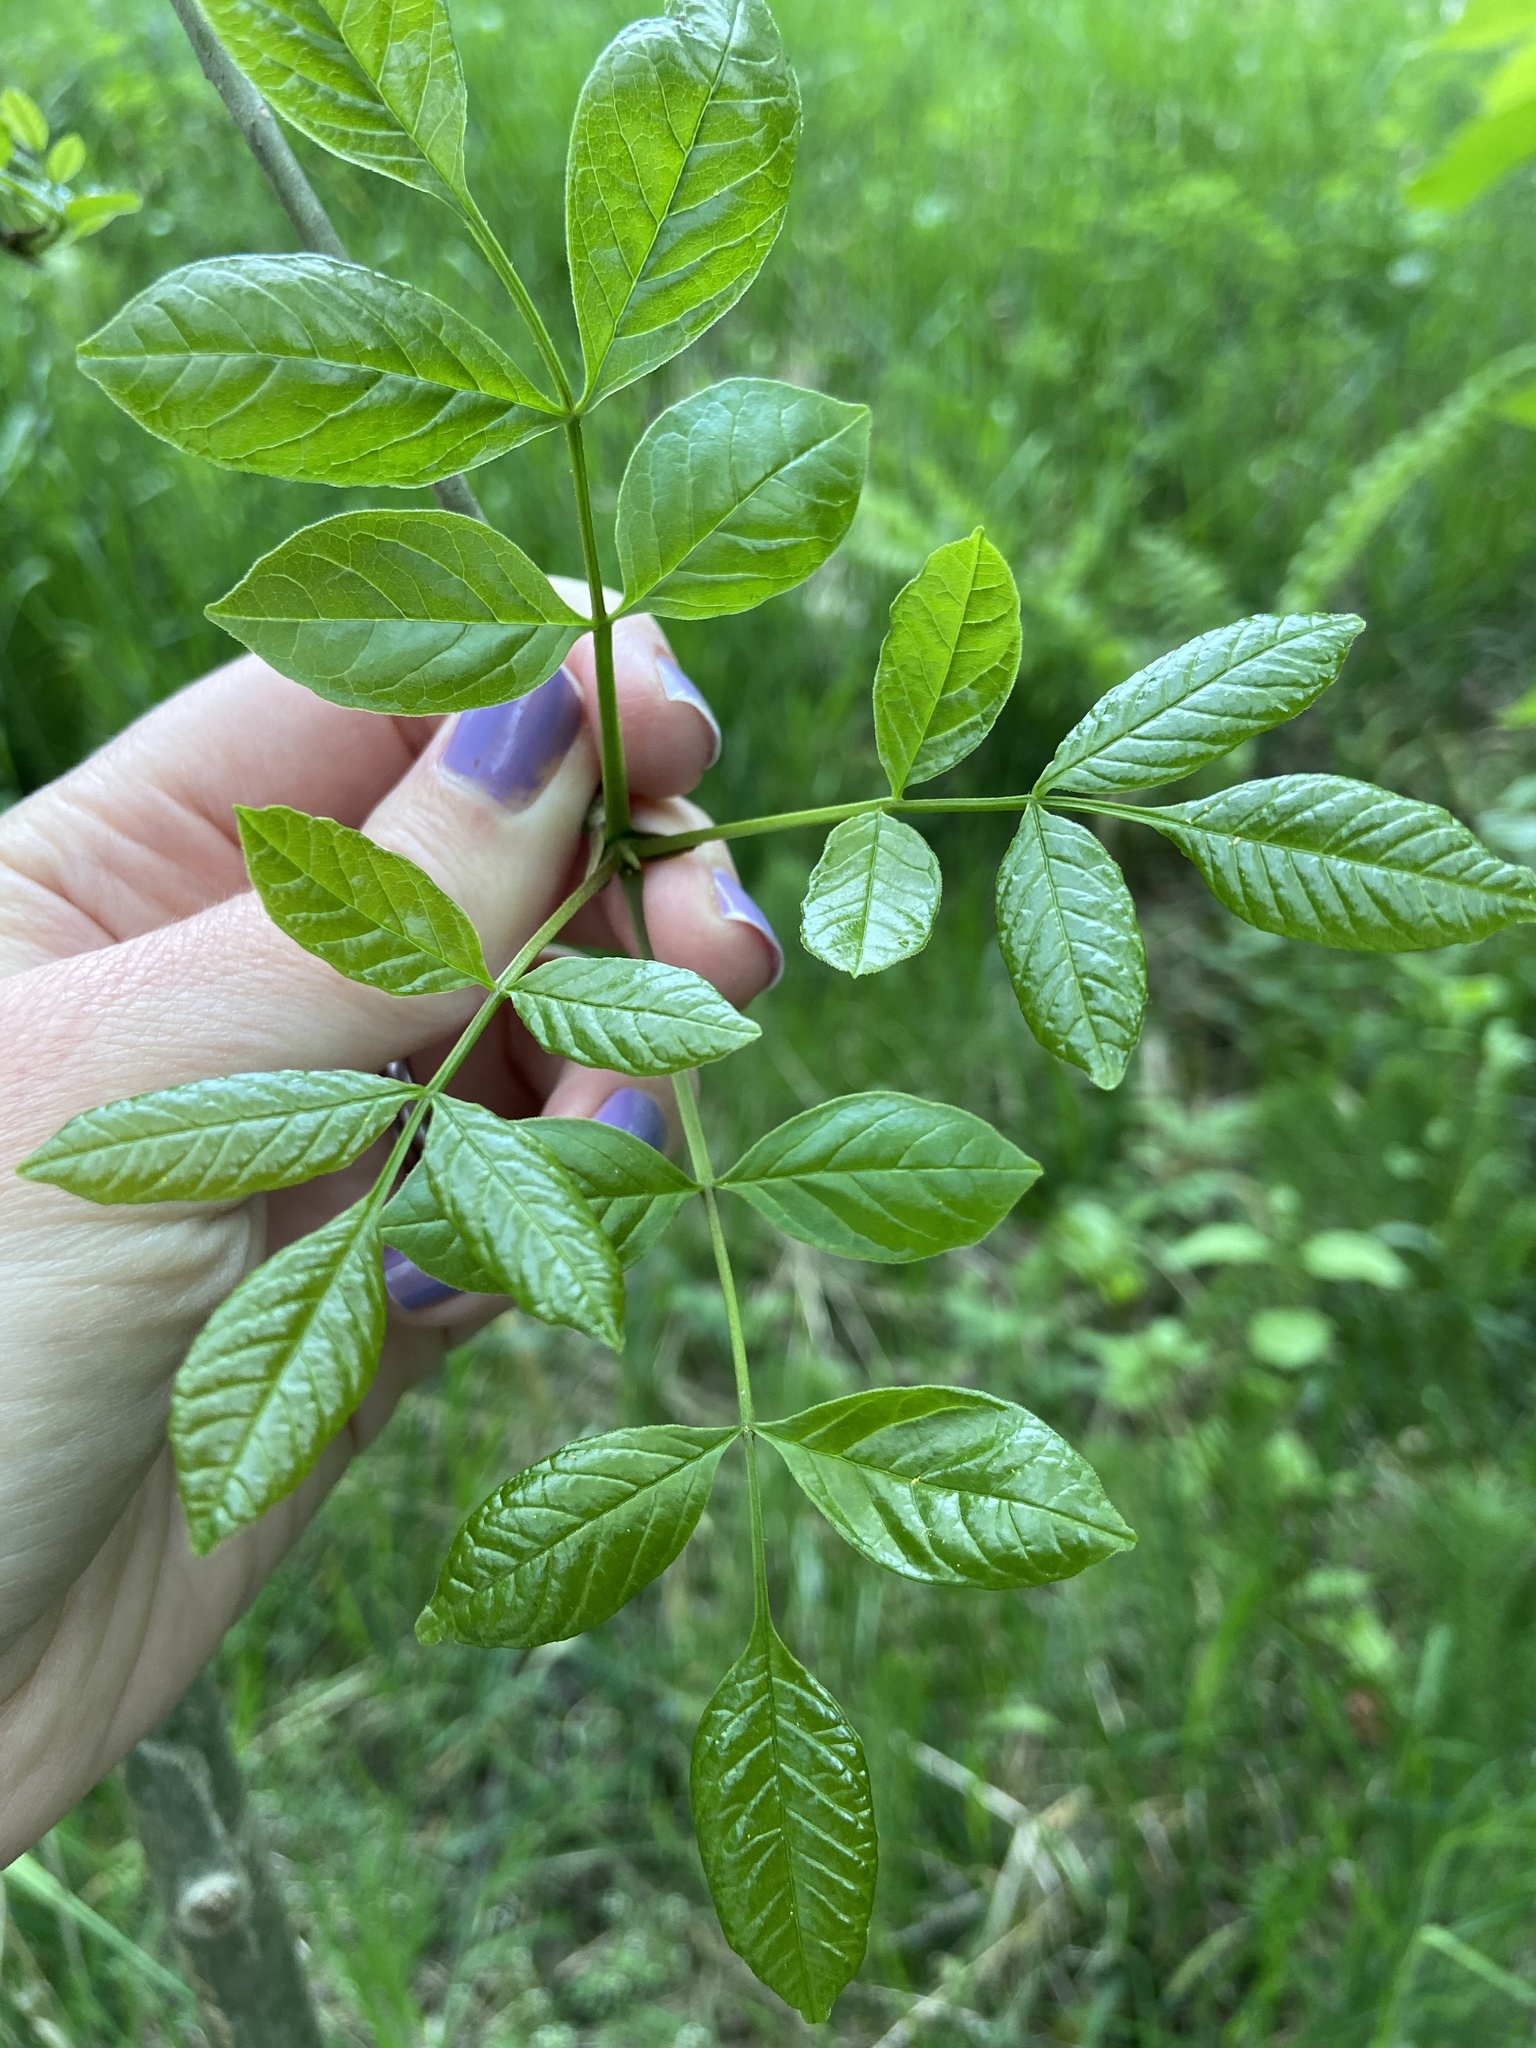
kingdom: Plantae
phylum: Tracheophyta
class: Magnoliopsida
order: Lamiales
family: Oleaceae
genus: Fraxinus
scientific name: Fraxinus latifolia
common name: Oregon ash
